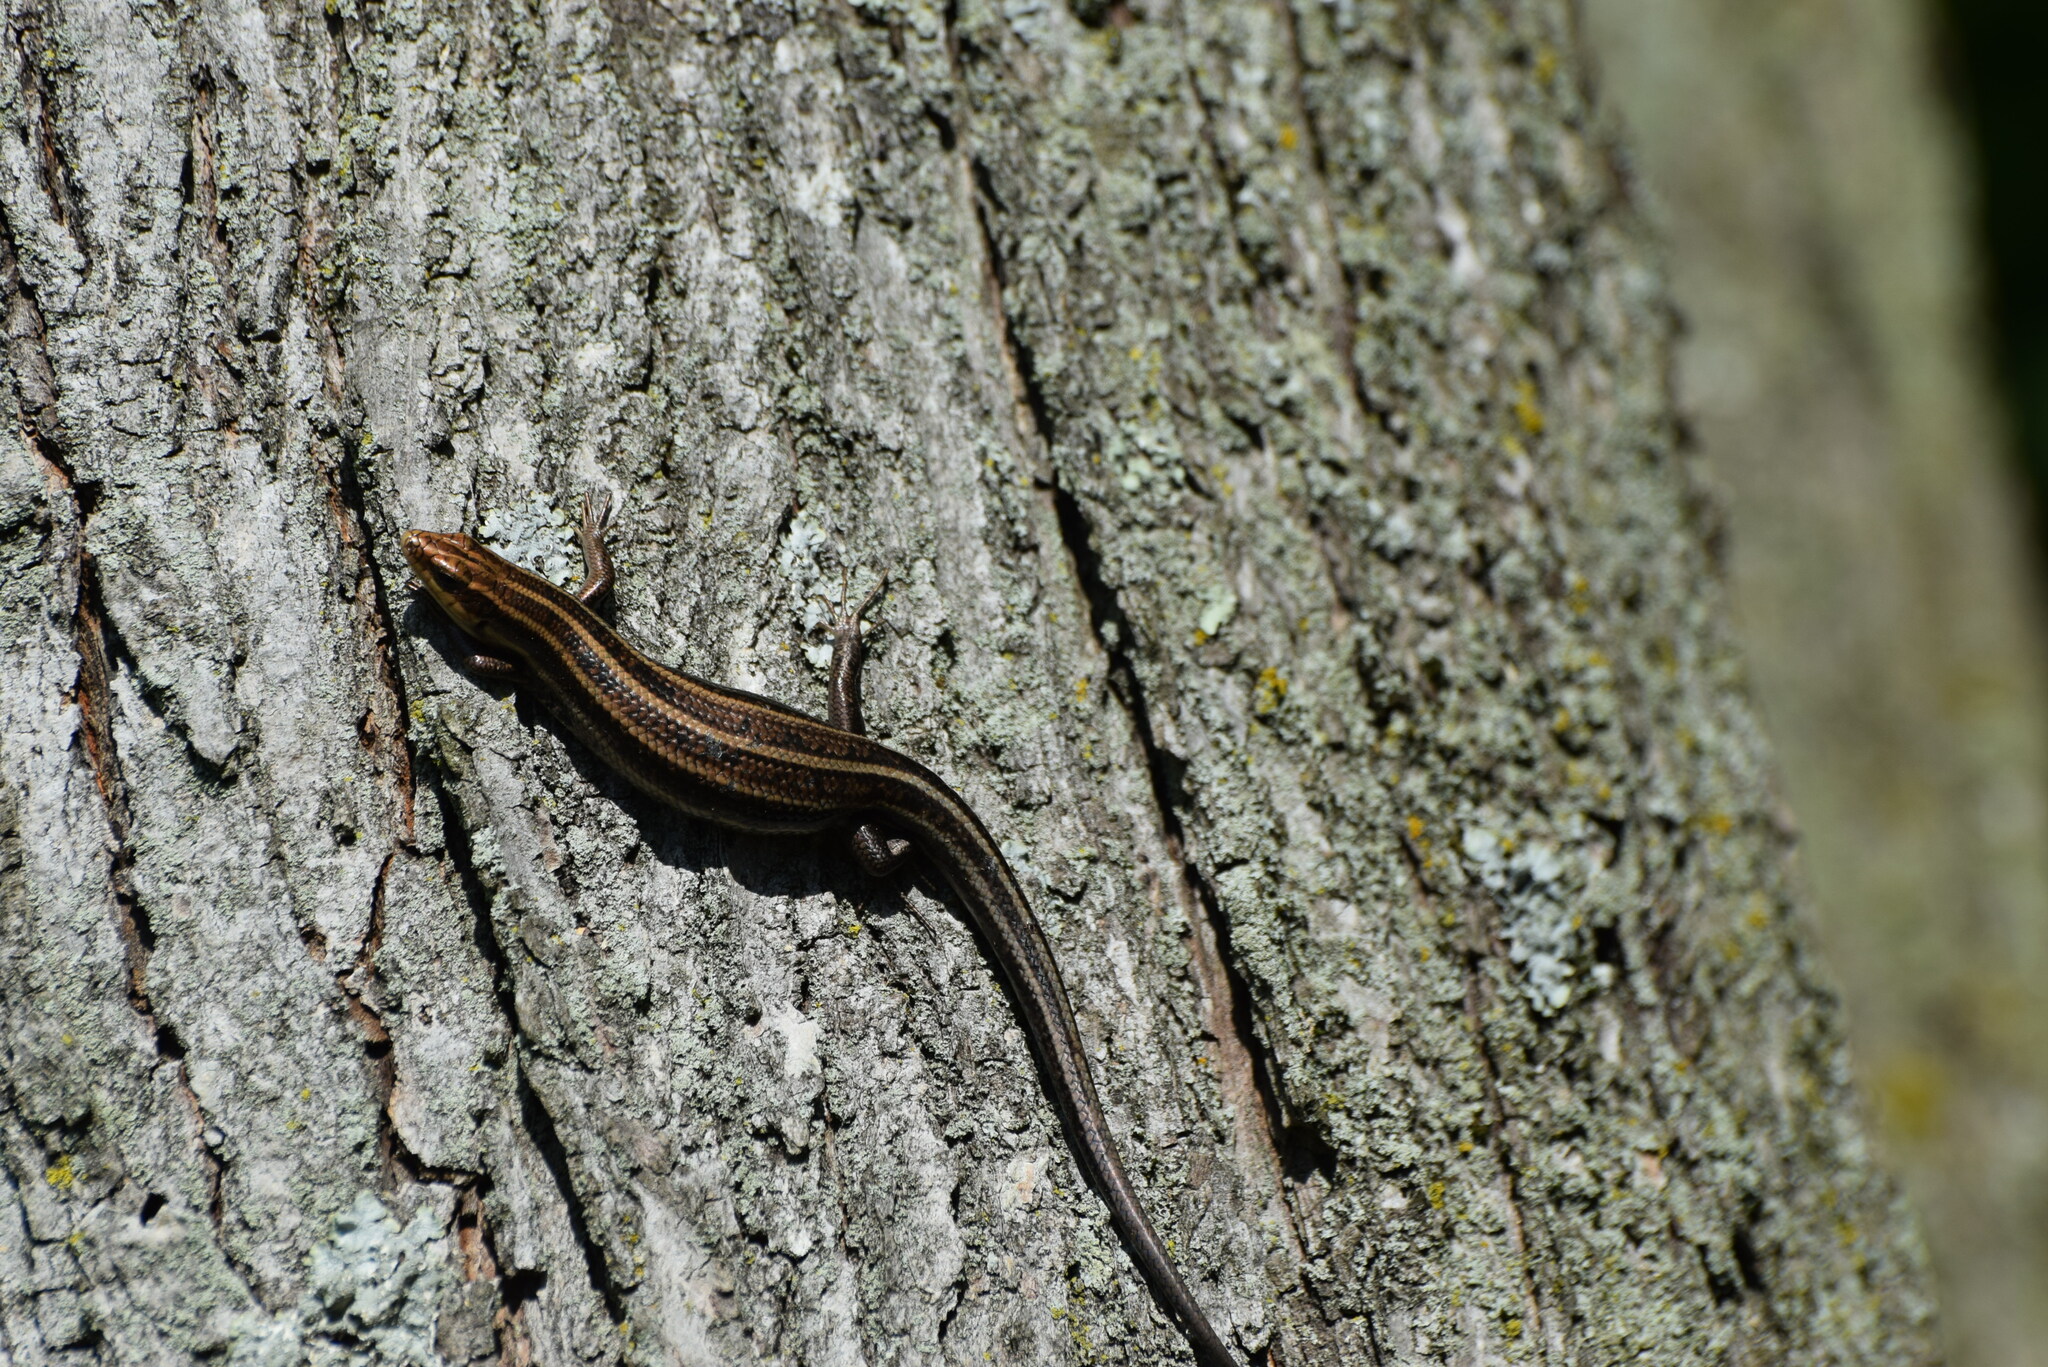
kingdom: Animalia
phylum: Chordata
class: Squamata
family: Scincidae
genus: Plestiodon
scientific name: Plestiodon fasciatus
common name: Five-lined skink
